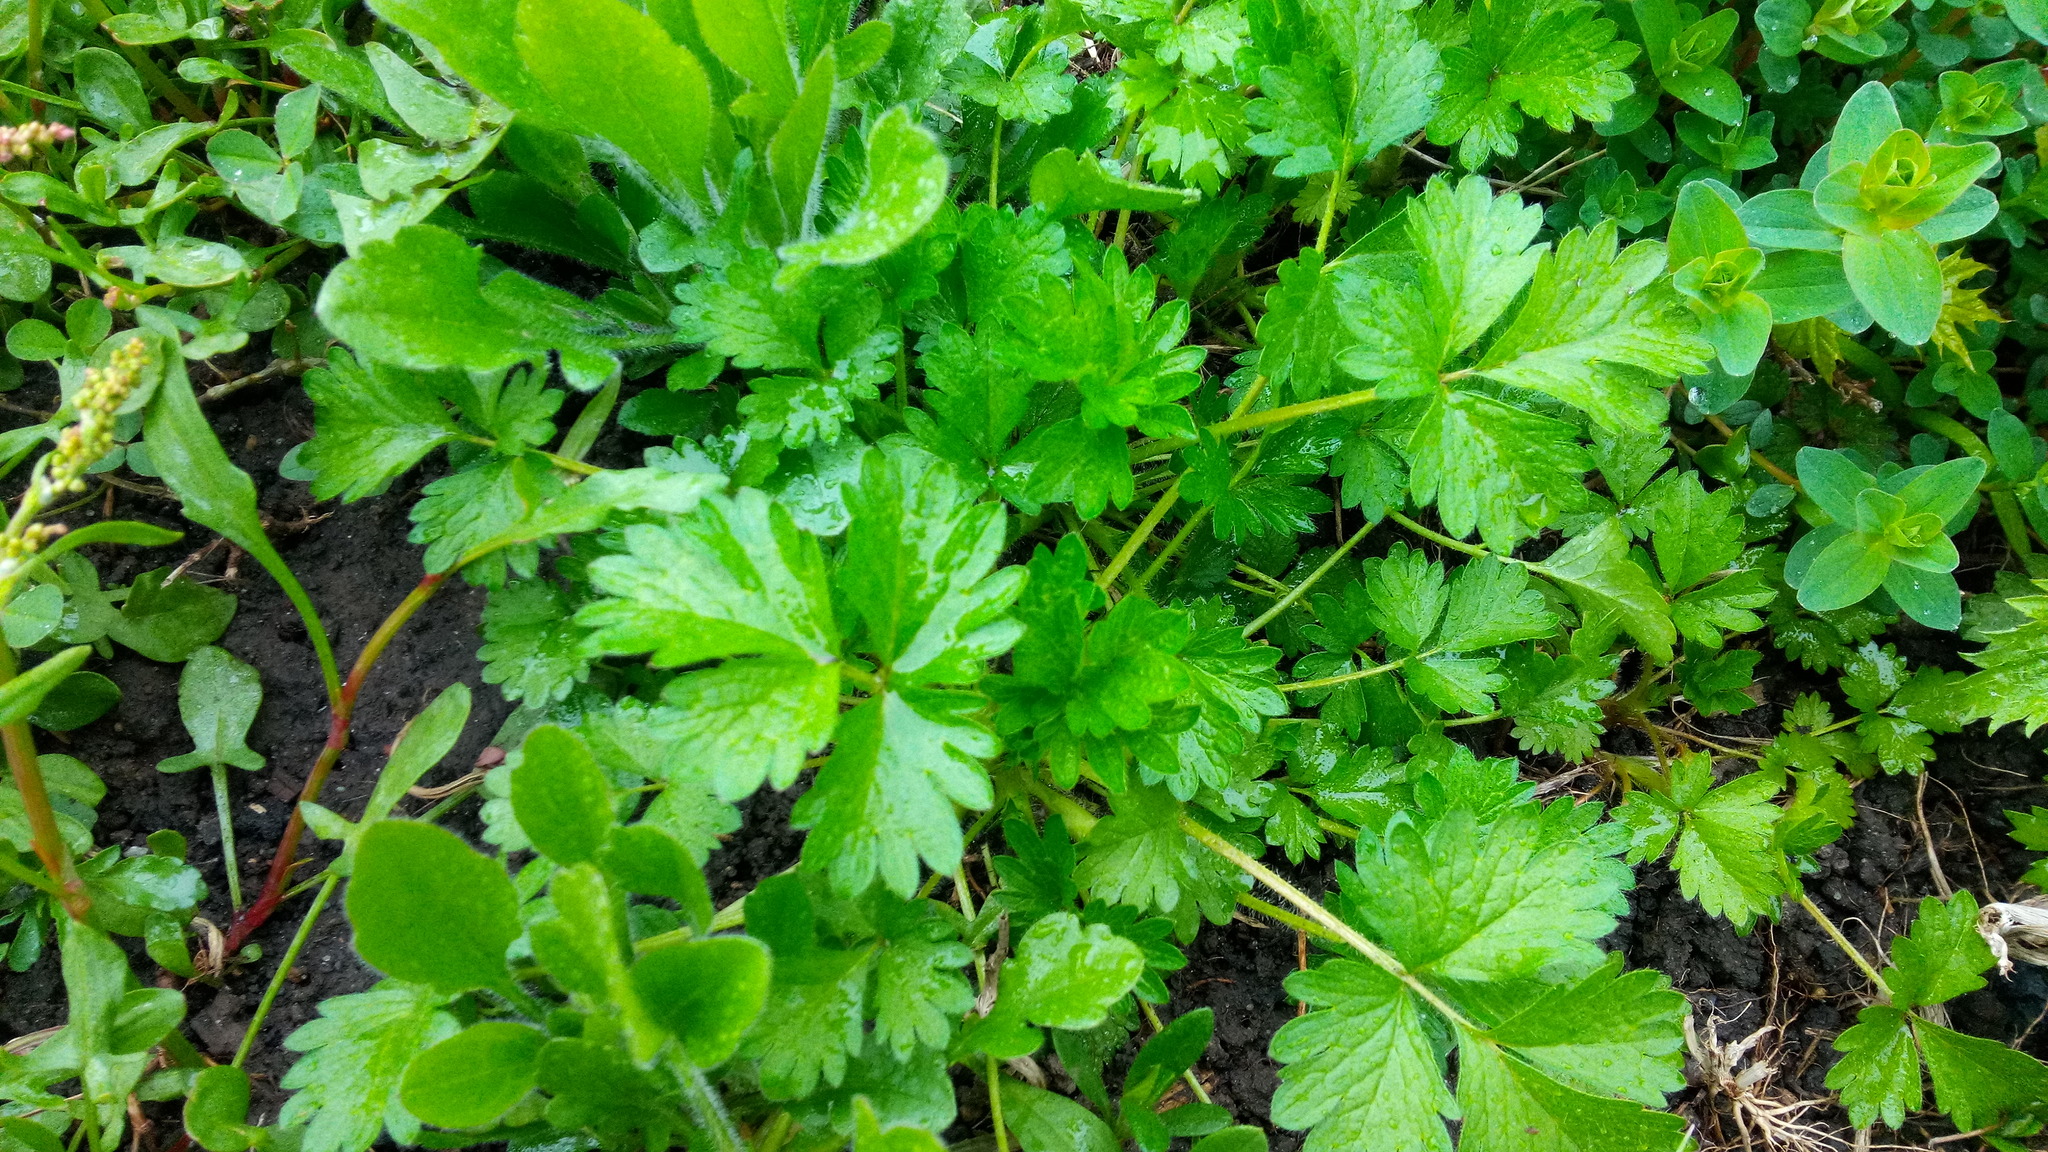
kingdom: Plantae
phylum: Tracheophyta
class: Magnoliopsida
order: Rosales
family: Rosaceae
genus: Potentilla
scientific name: Potentilla norvegica
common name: Ternate-leaved cinquefoil
